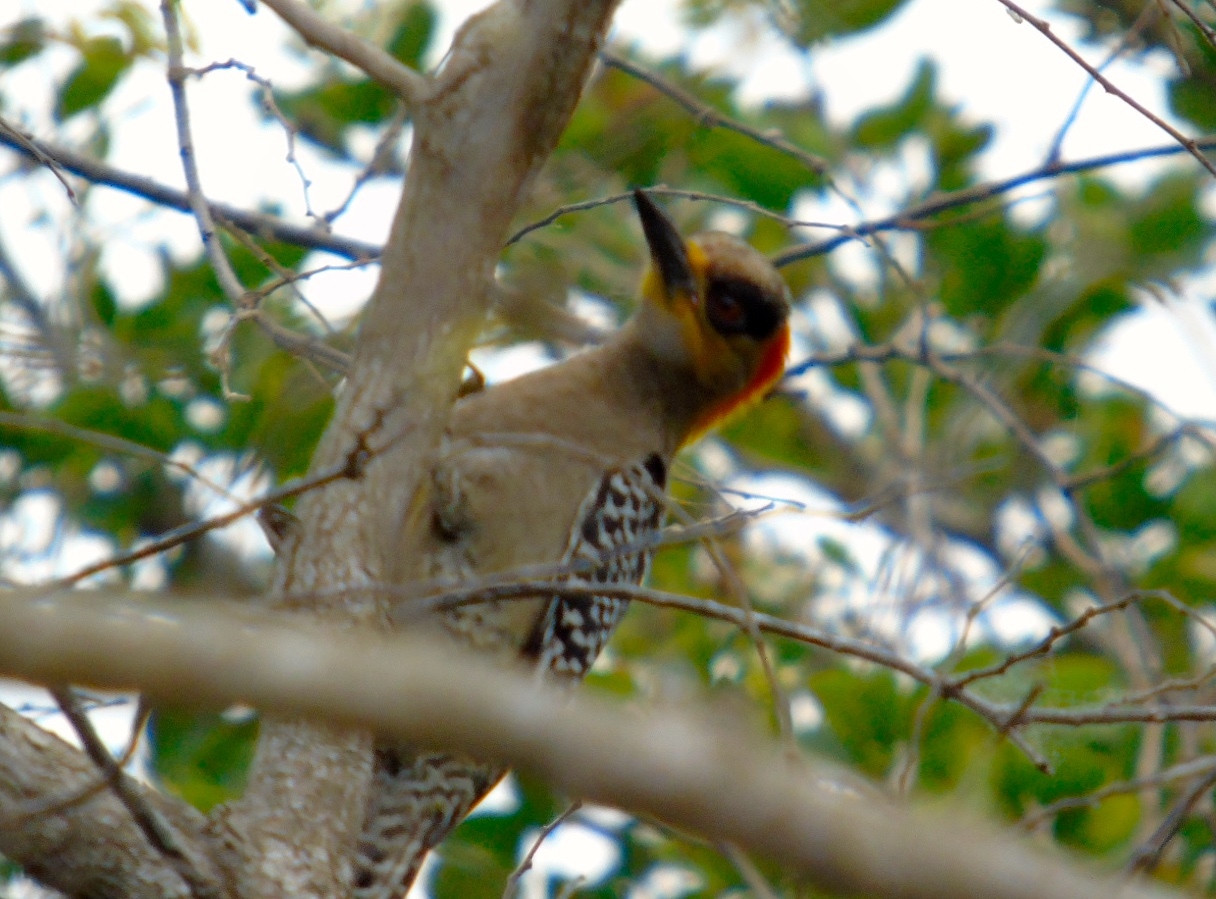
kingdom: Animalia
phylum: Chordata
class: Aves
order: Piciformes
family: Picidae
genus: Melanerpes
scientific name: Melanerpes chrysogenys
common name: Golden-cheeked woodpecker
